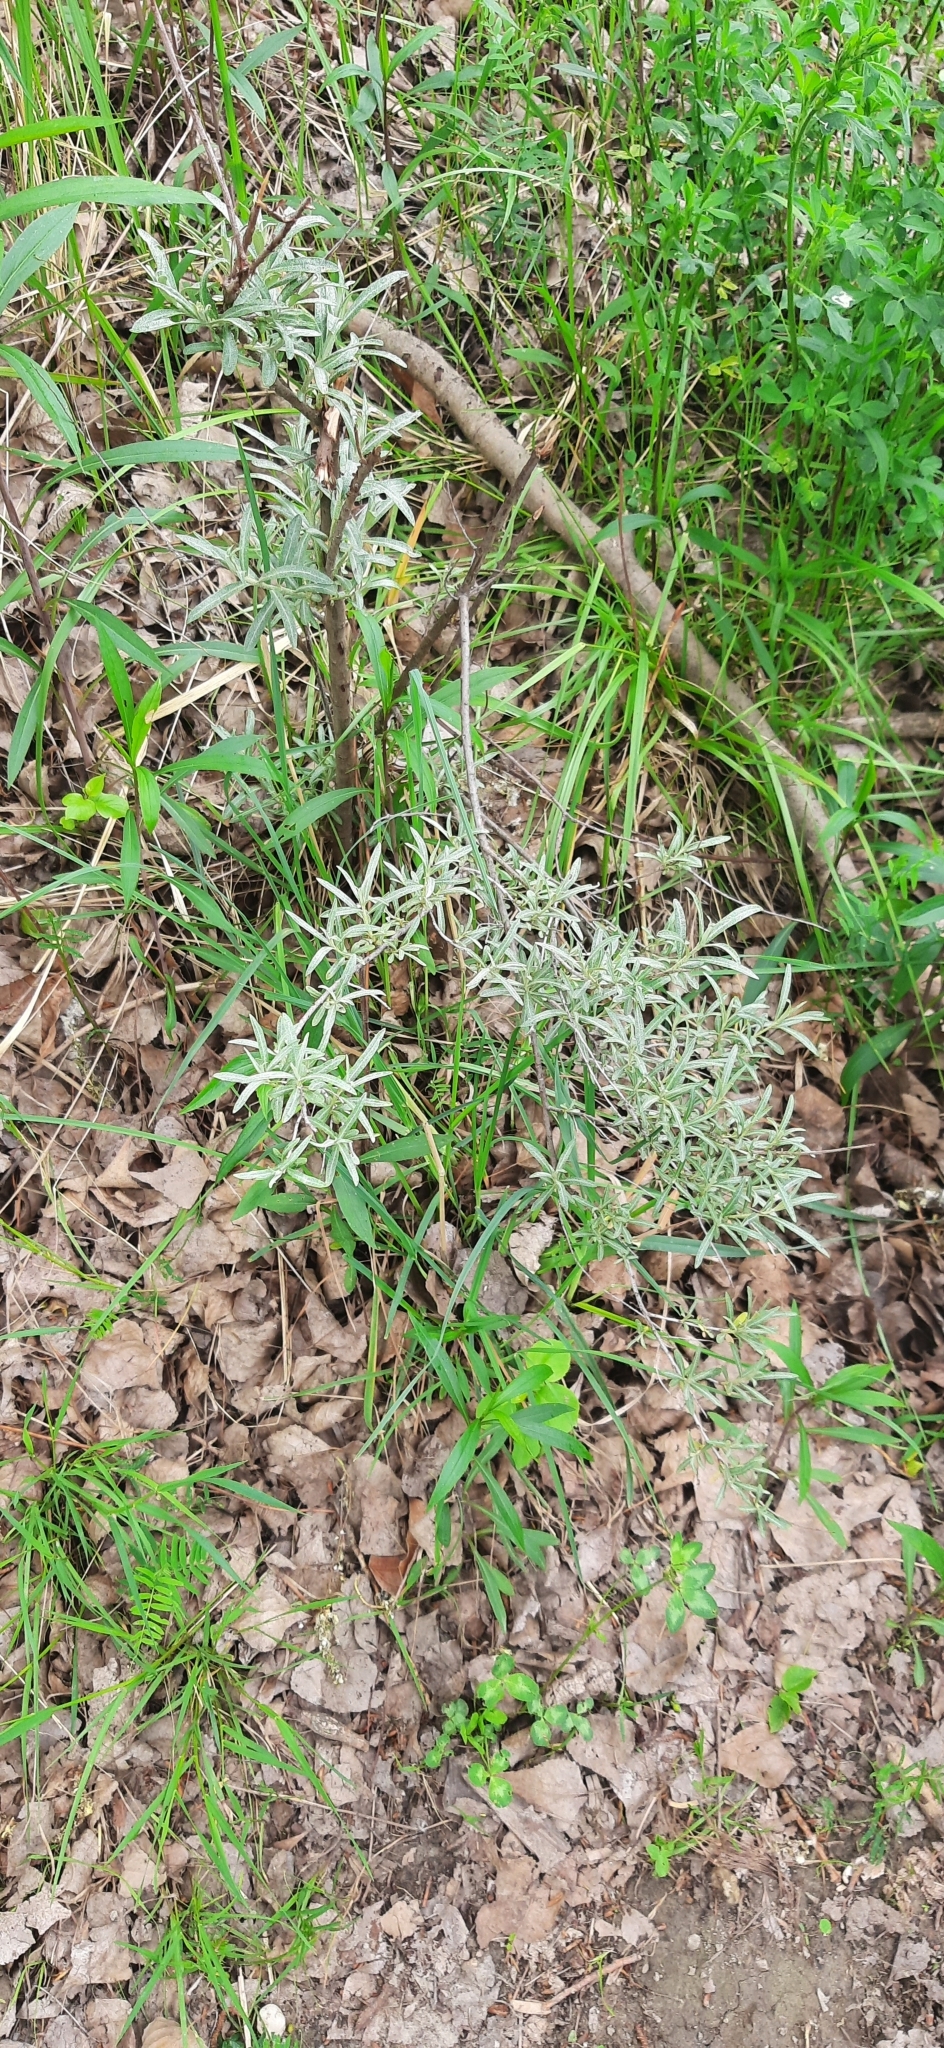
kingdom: Plantae
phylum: Tracheophyta
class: Magnoliopsida
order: Rosales
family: Elaeagnaceae
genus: Hippophae
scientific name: Hippophae rhamnoides
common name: Sea-buckthorn
